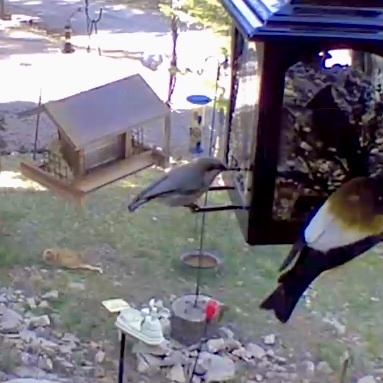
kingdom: Animalia
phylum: Chordata
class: Aves
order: Passeriformes
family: Sittidae
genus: Sitta
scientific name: Sitta pygmaea
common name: Pygmy nuthatch
